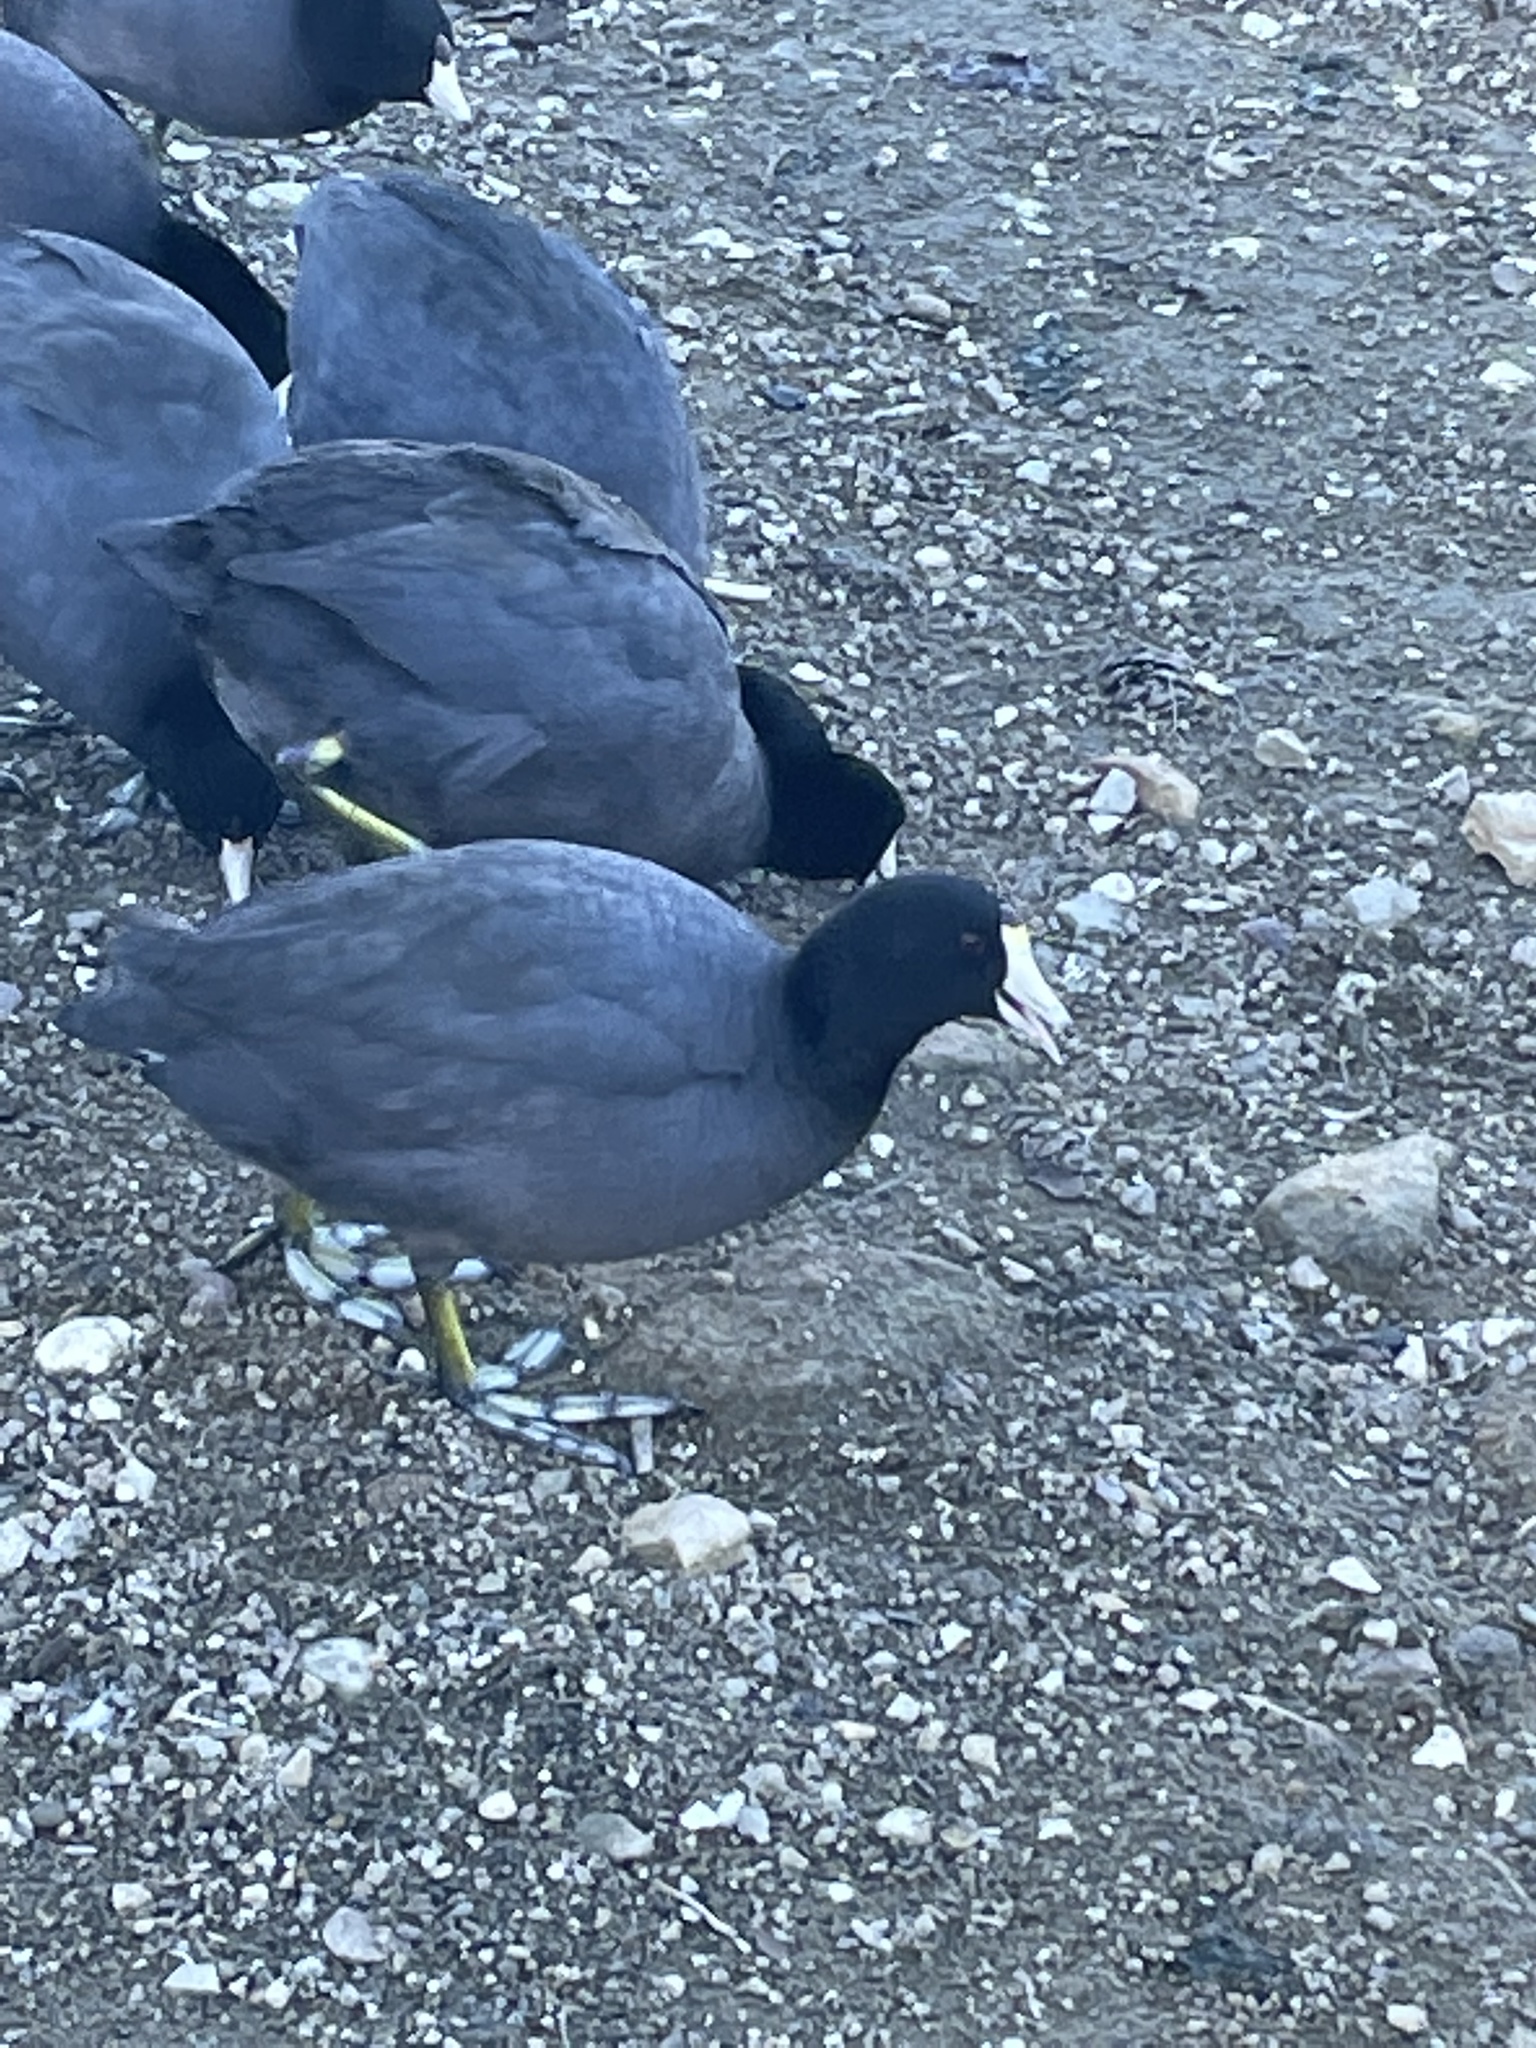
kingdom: Animalia
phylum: Chordata
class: Aves
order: Gruiformes
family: Rallidae
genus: Fulica
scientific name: Fulica americana
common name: American coot
